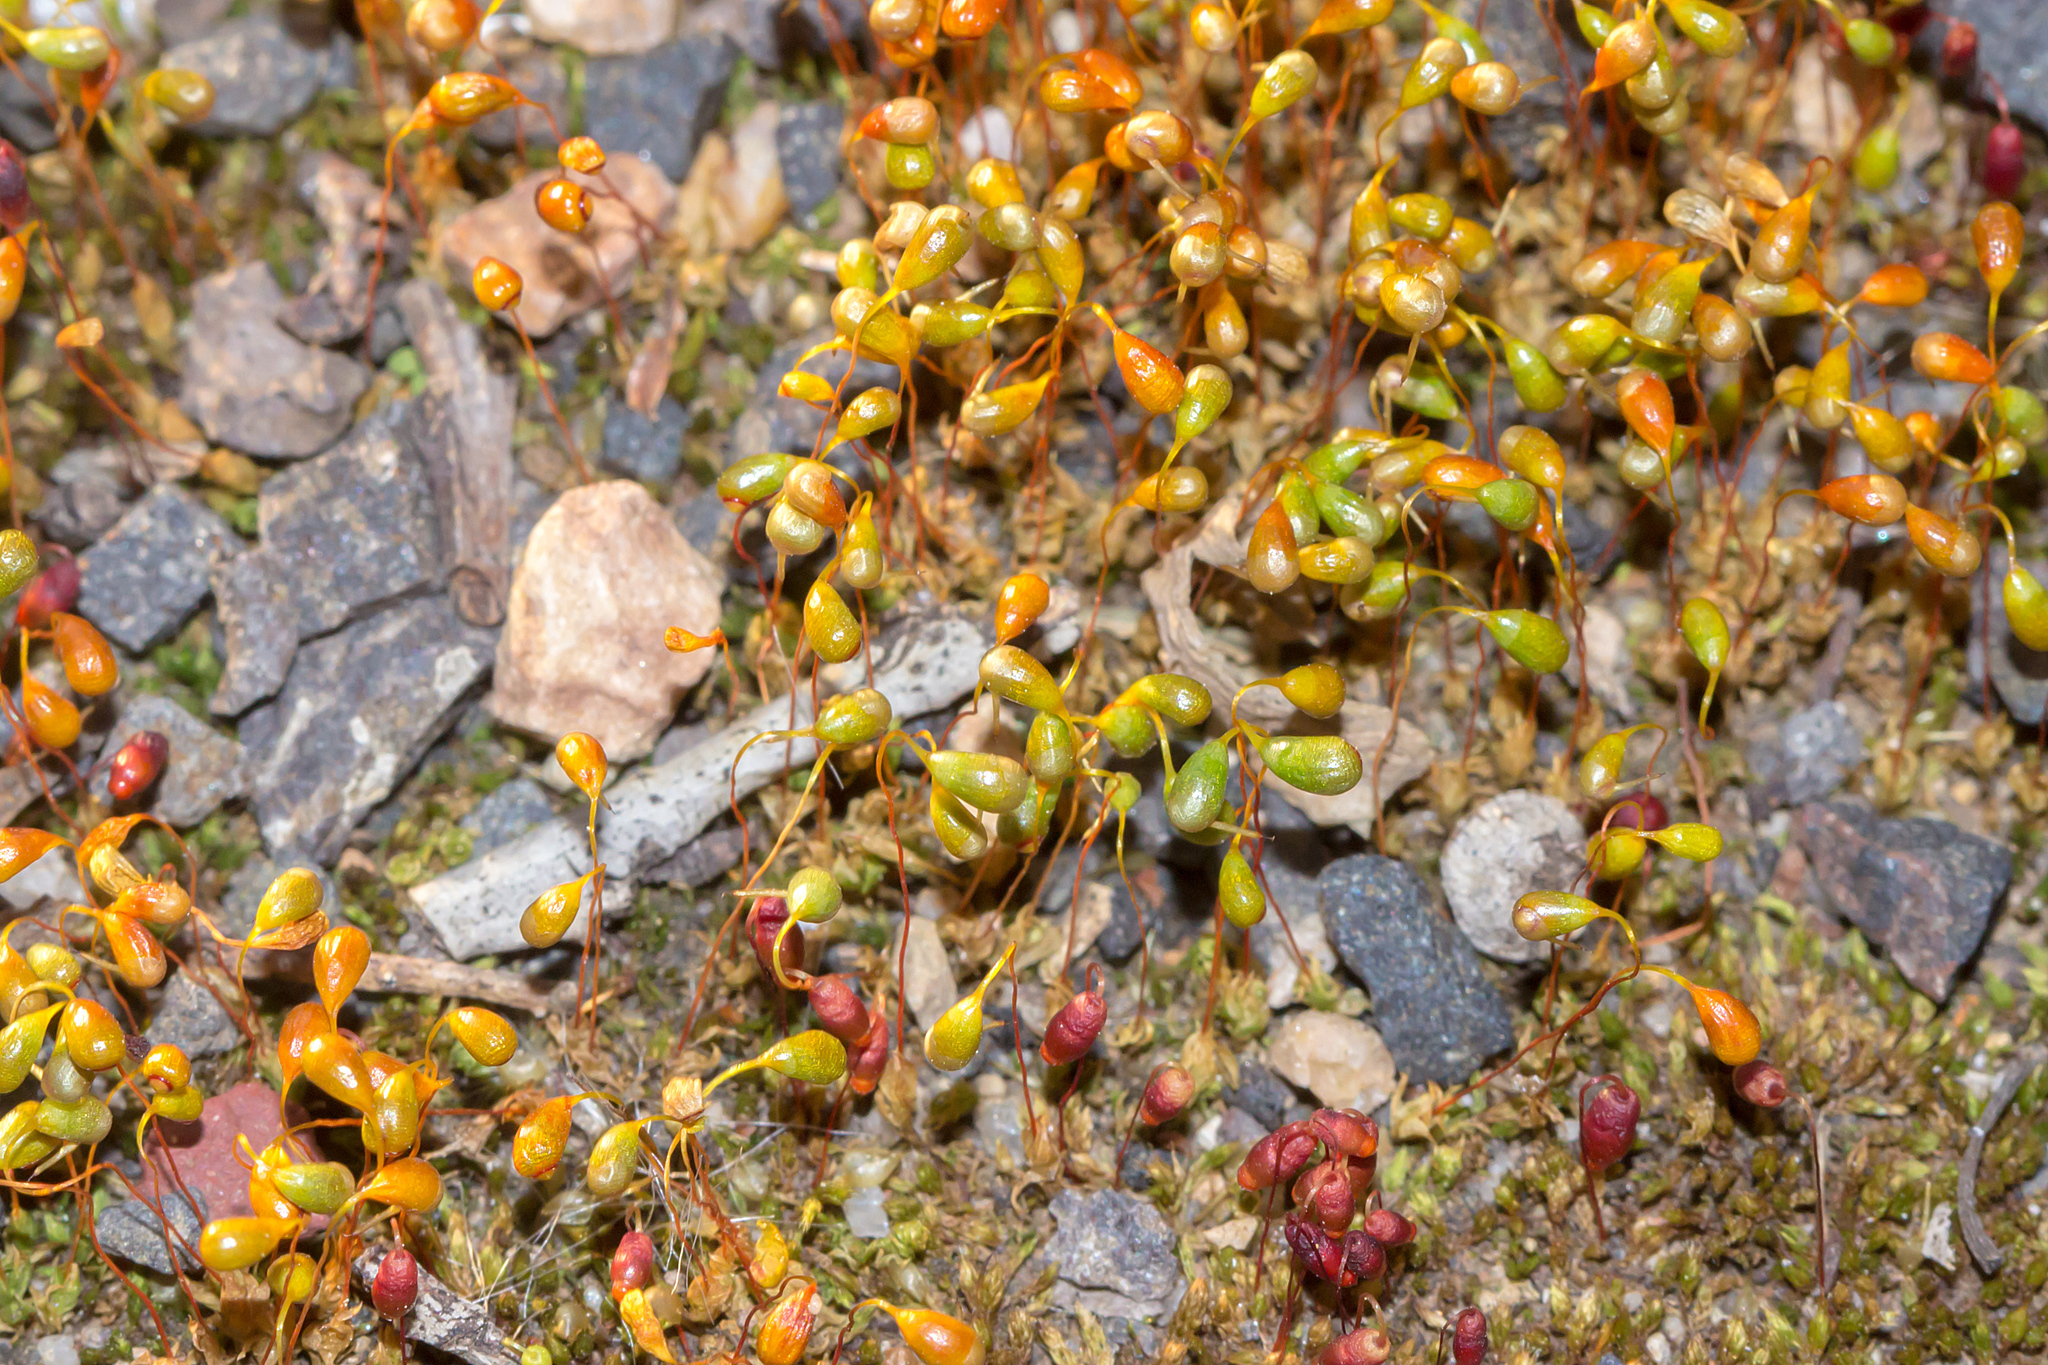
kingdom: Plantae
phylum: Bryophyta
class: Bryopsida
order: Funariales
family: Funariaceae
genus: Funaria
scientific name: Funaria hygrometrica
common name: Common cord moss
